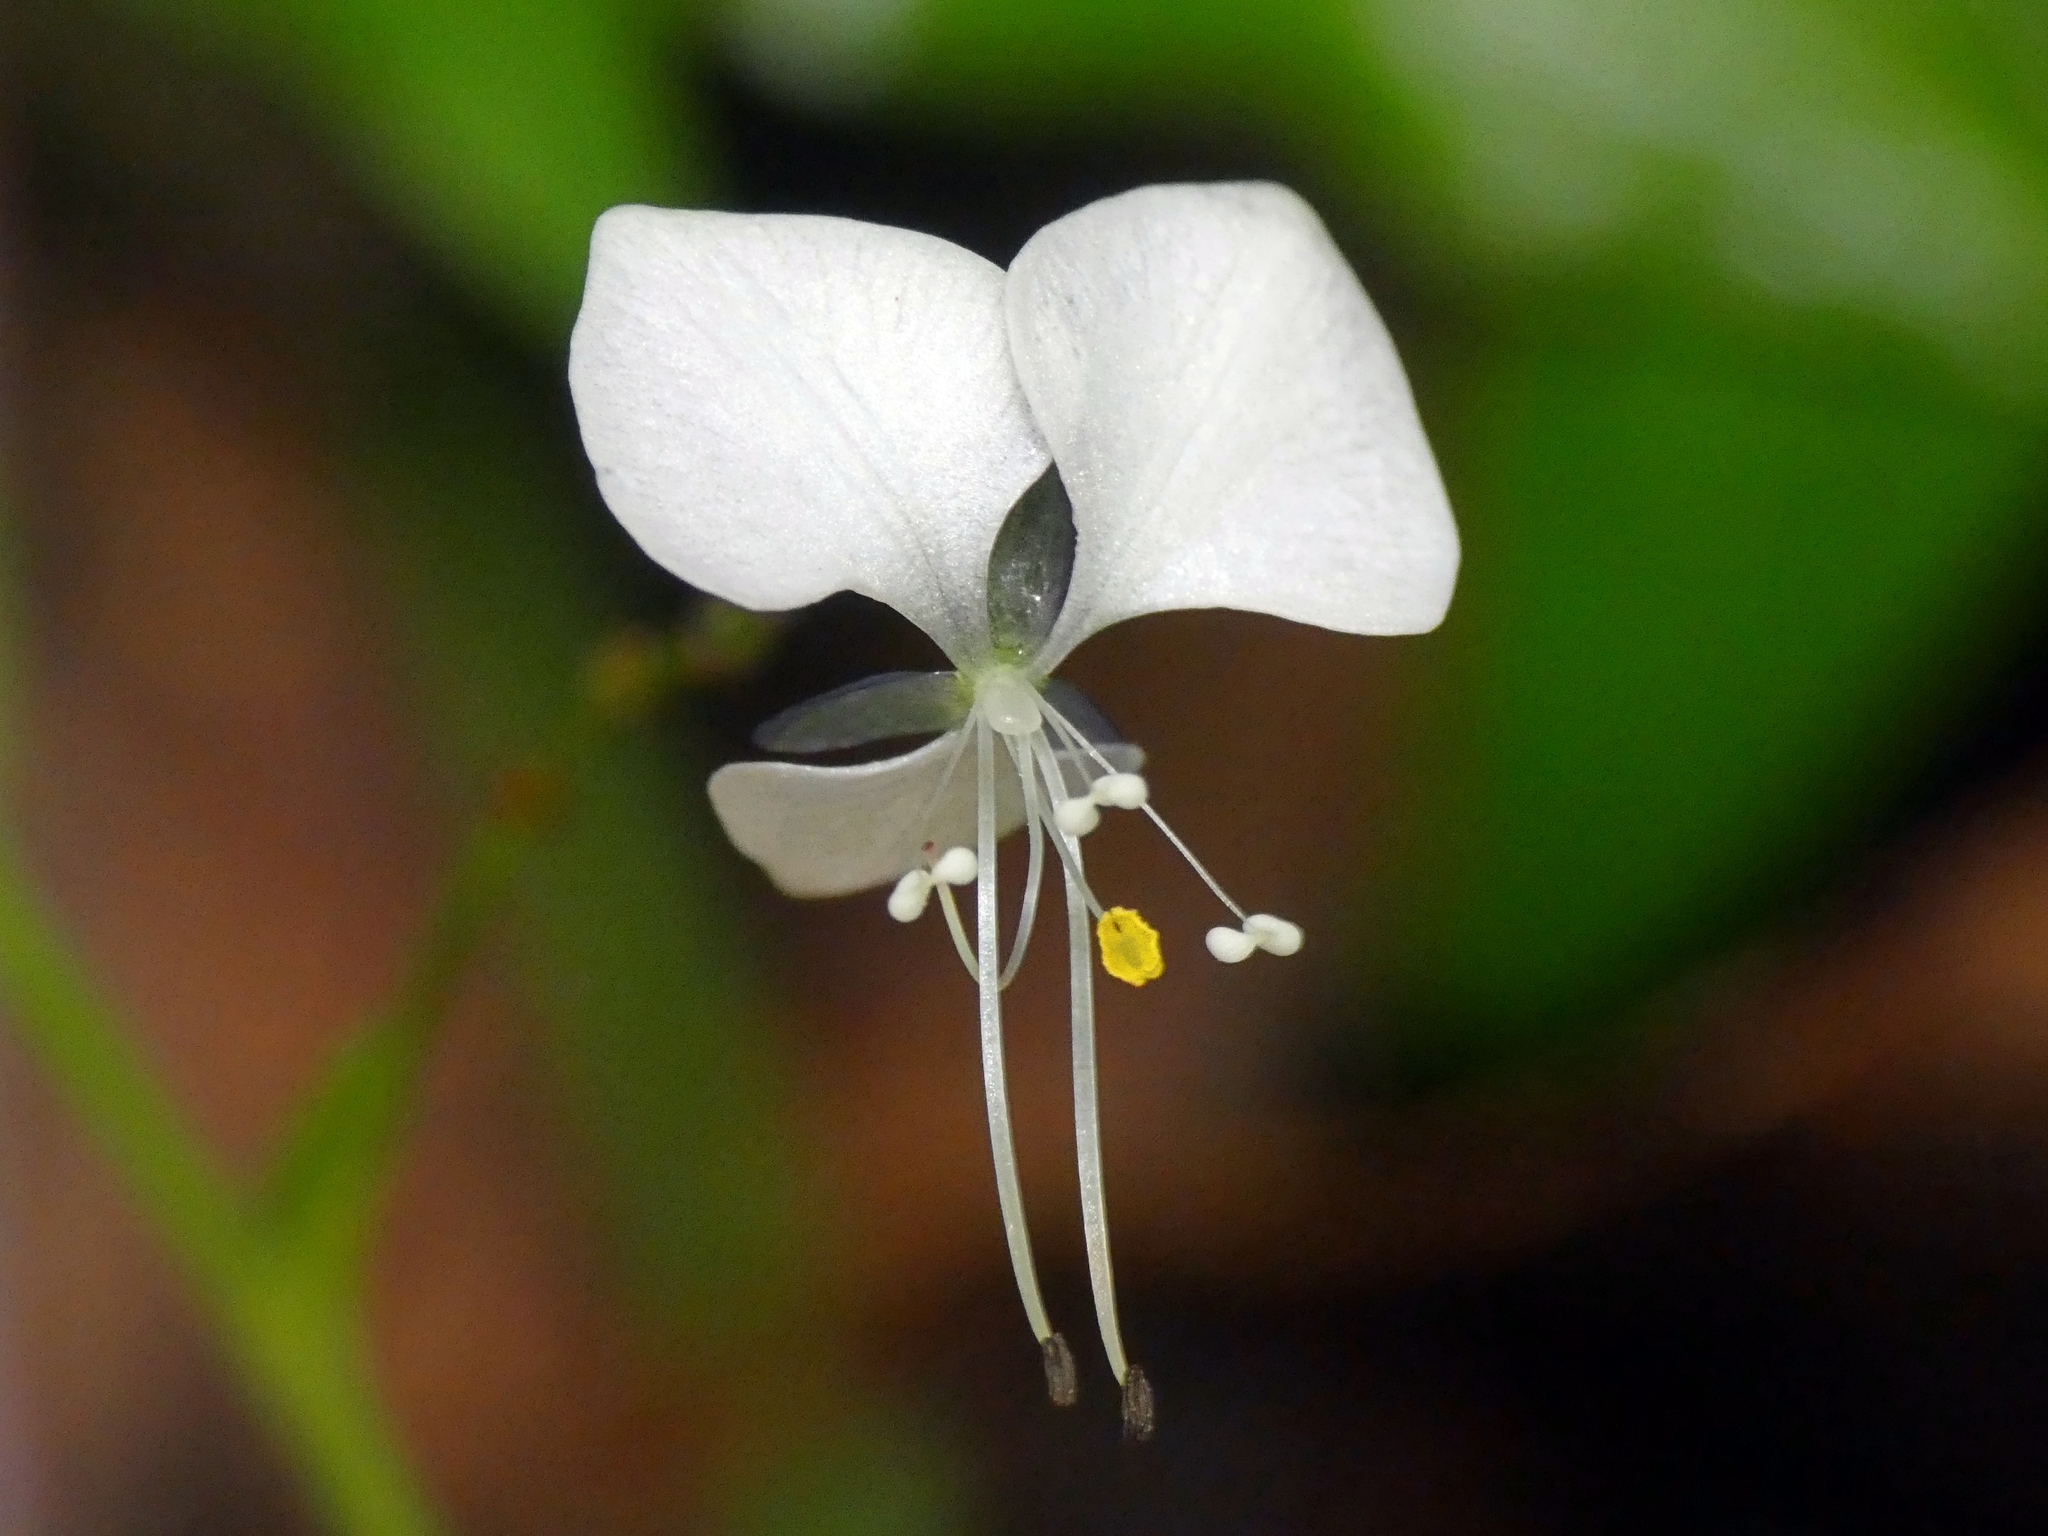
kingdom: Plantae
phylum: Tracheophyta
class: Liliopsida
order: Commelinales
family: Commelinaceae
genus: Aneilema
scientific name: Aneilema acuminatum
